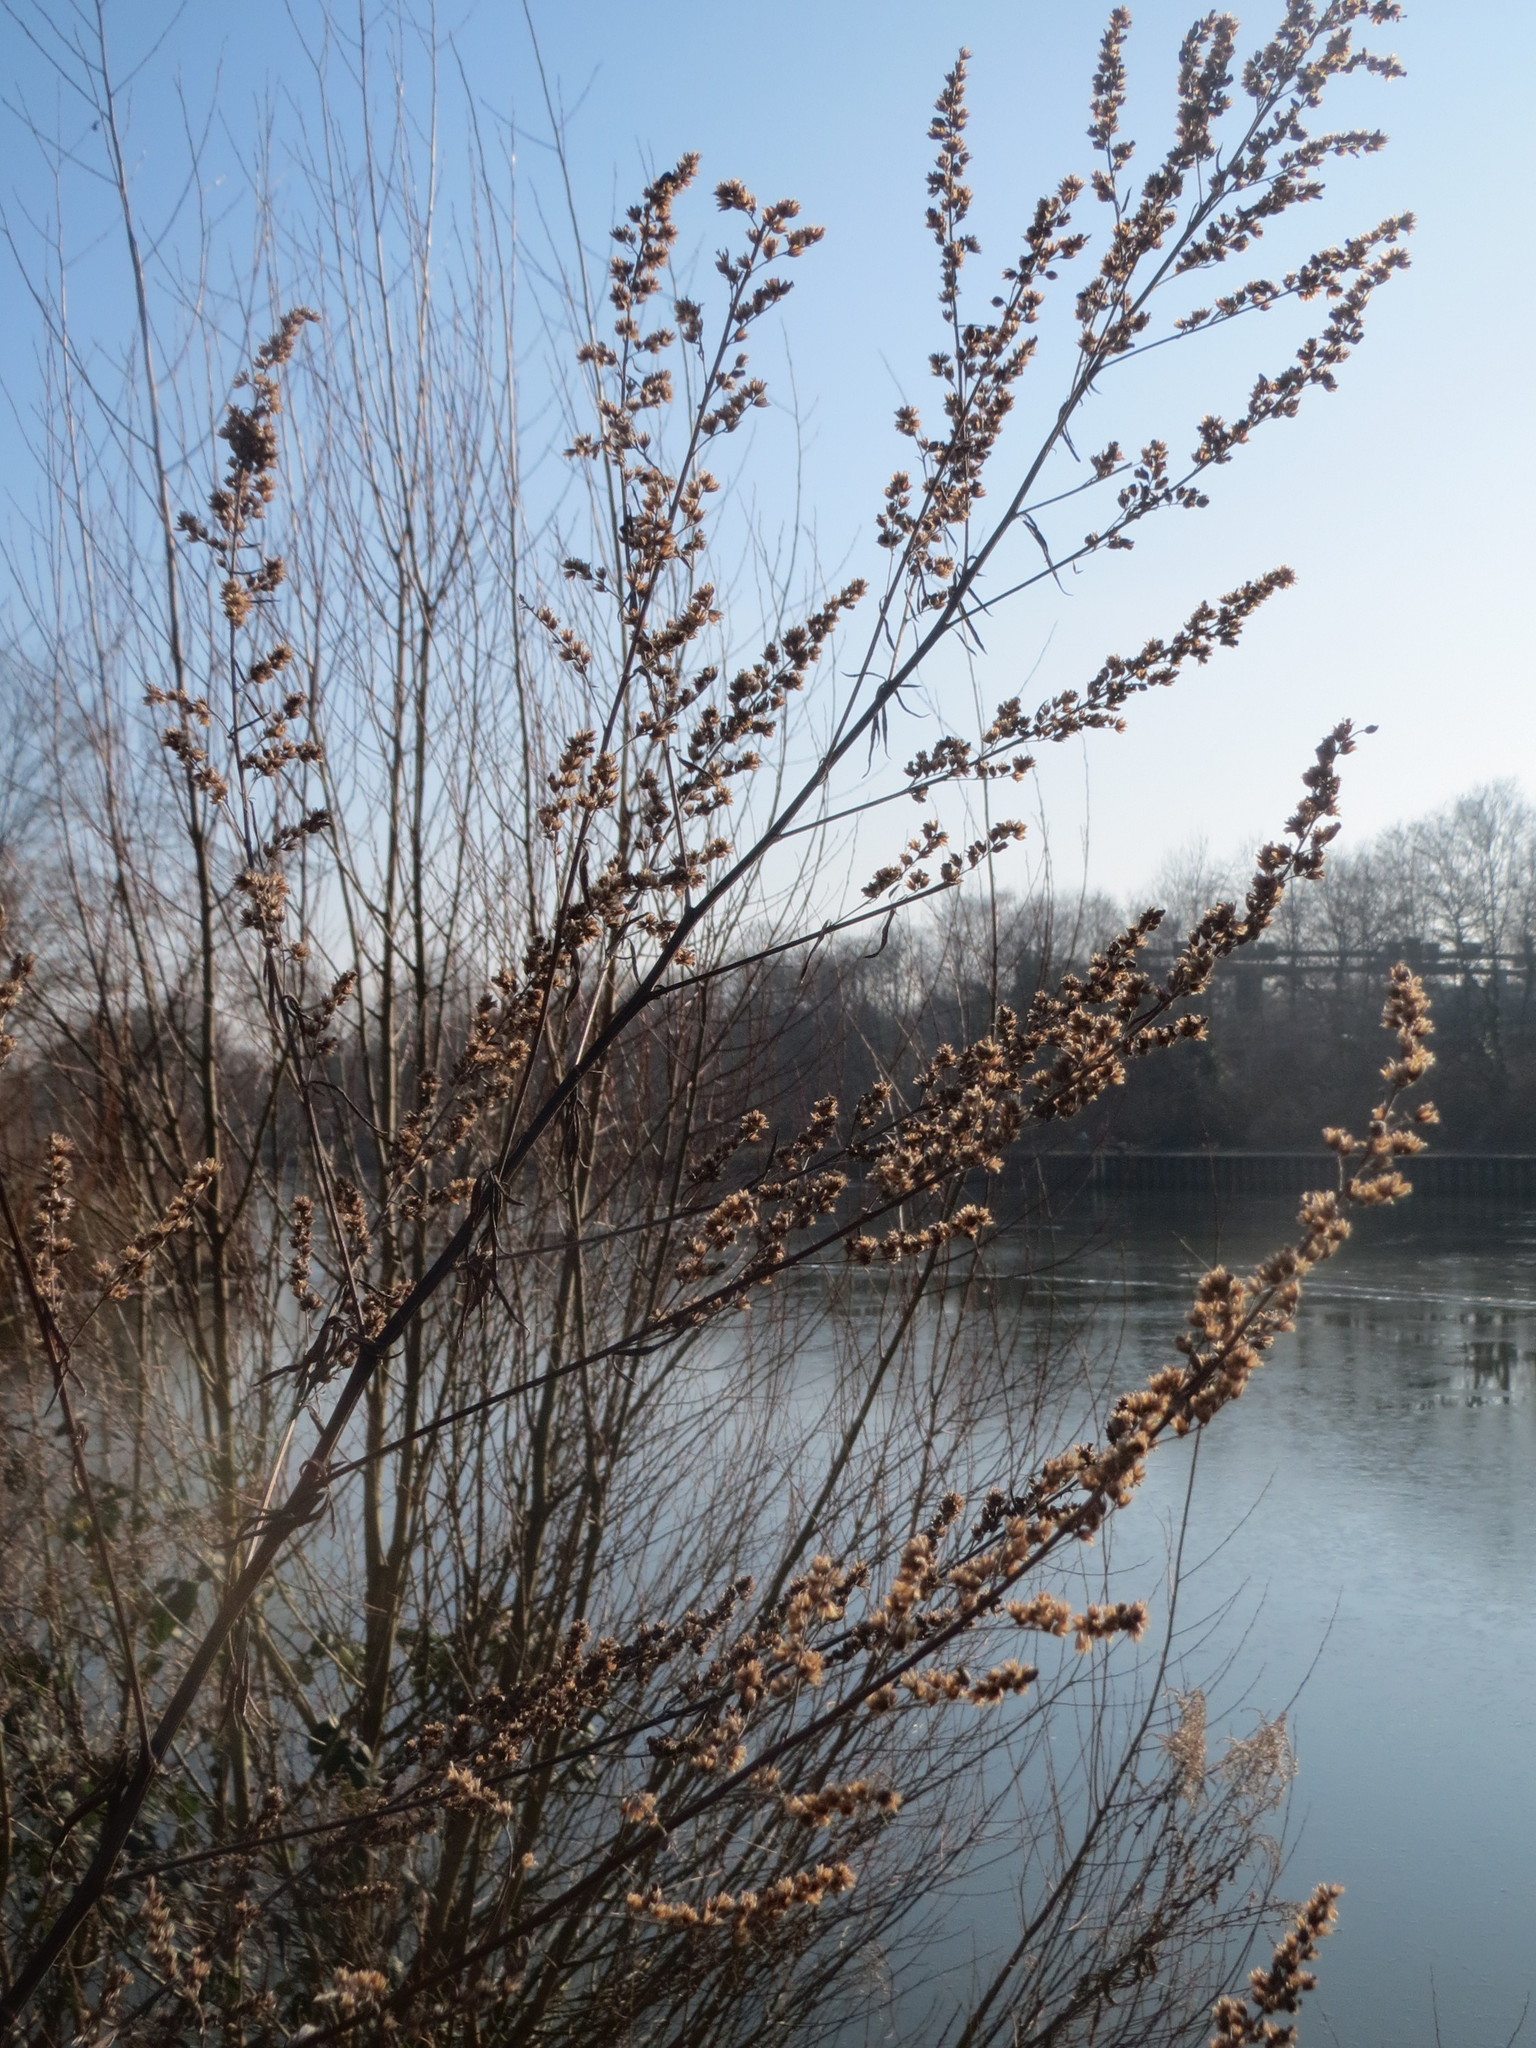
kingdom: Plantae
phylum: Tracheophyta
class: Magnoliopsida
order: Asterales
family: Asteraceae
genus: Artemisia
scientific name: Artemisia vulgaris
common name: Mugwort
